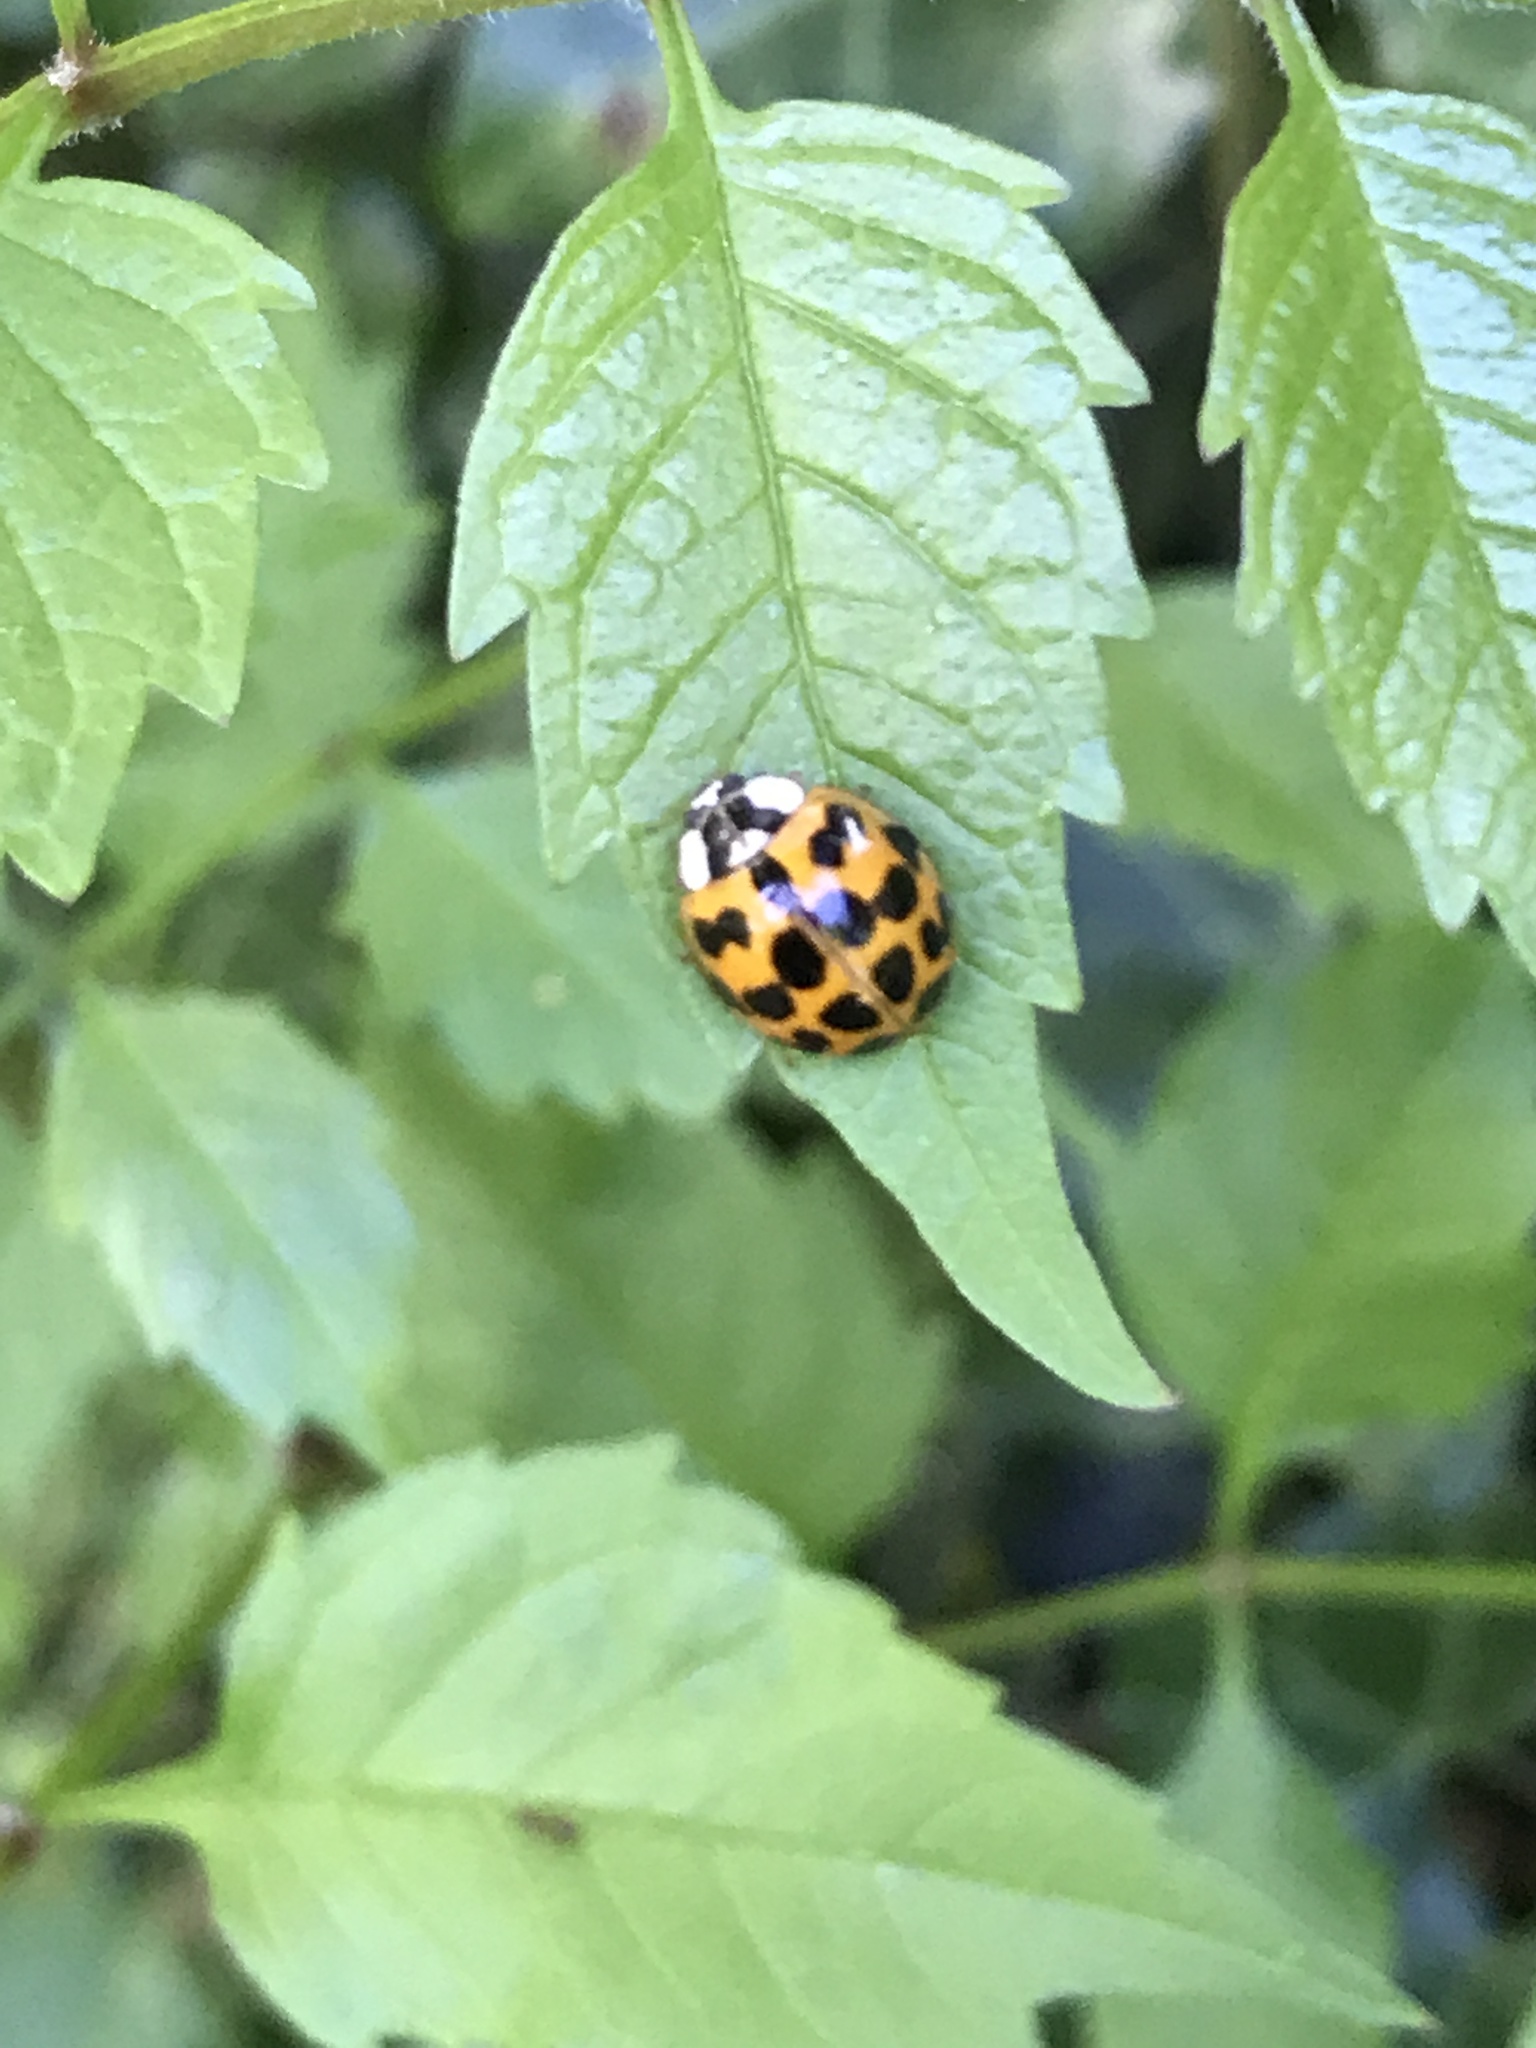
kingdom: Animalia
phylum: Arthropoda
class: Insecta
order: Coleoptera
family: Coccinellidae
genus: Harmonia
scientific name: Harmonia axyridis
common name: Harlequin ladybird
